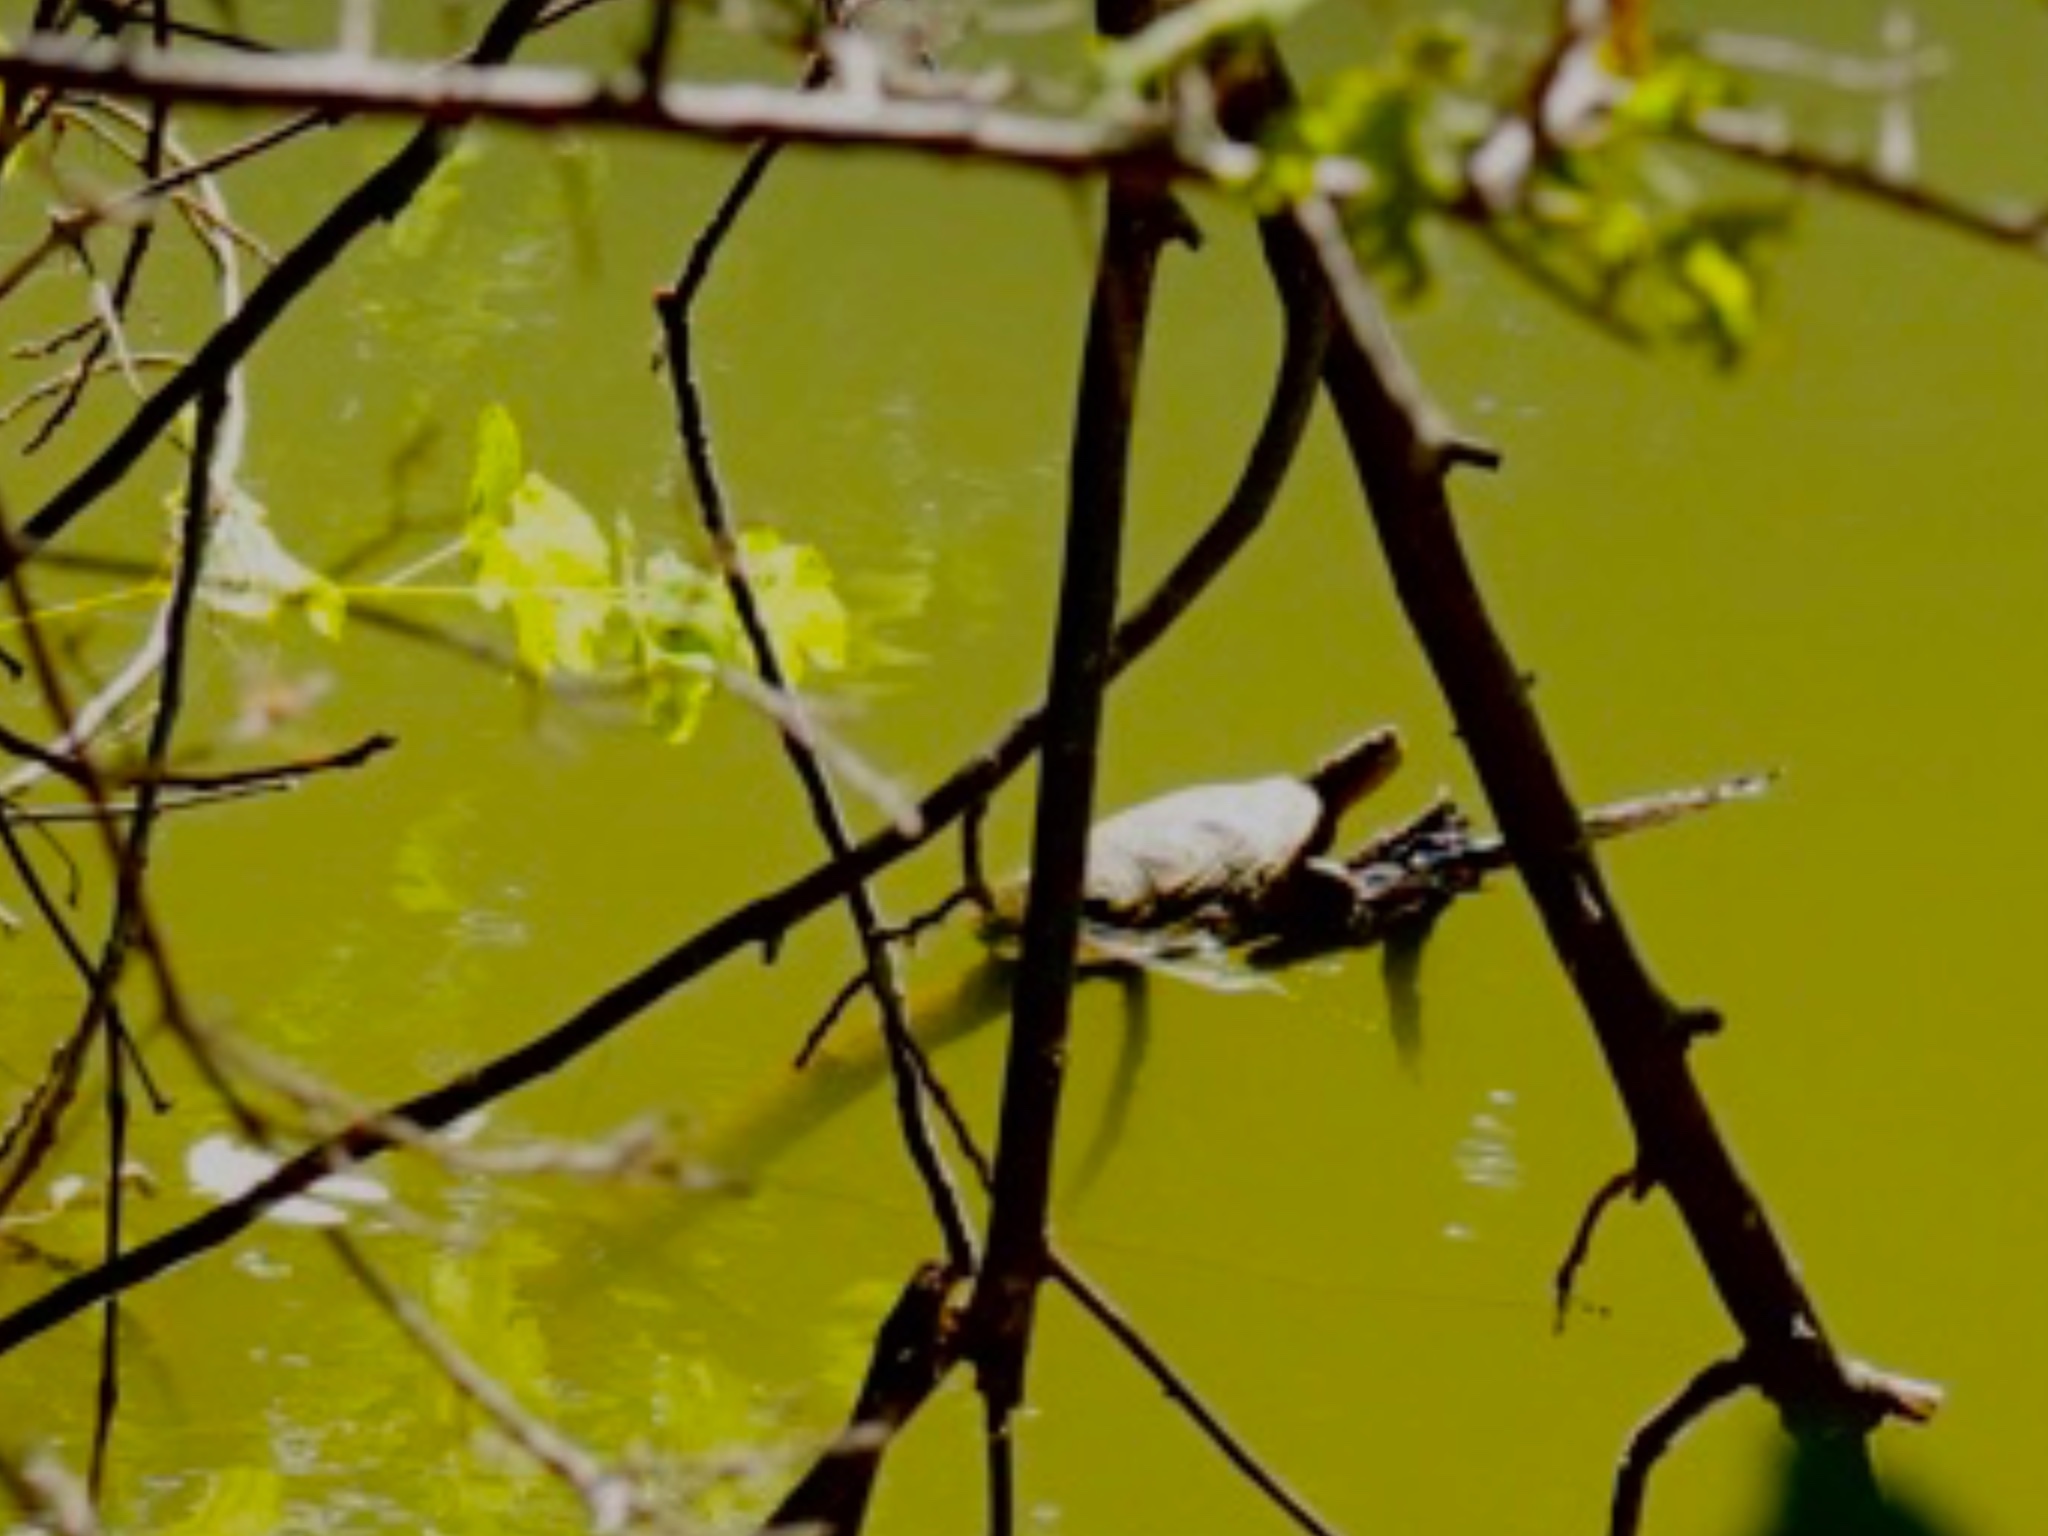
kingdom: Animalia
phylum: Chordata
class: Testudines
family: Emydidae
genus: Actinemys
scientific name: Actinemys marmorata
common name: Western pond turtle
